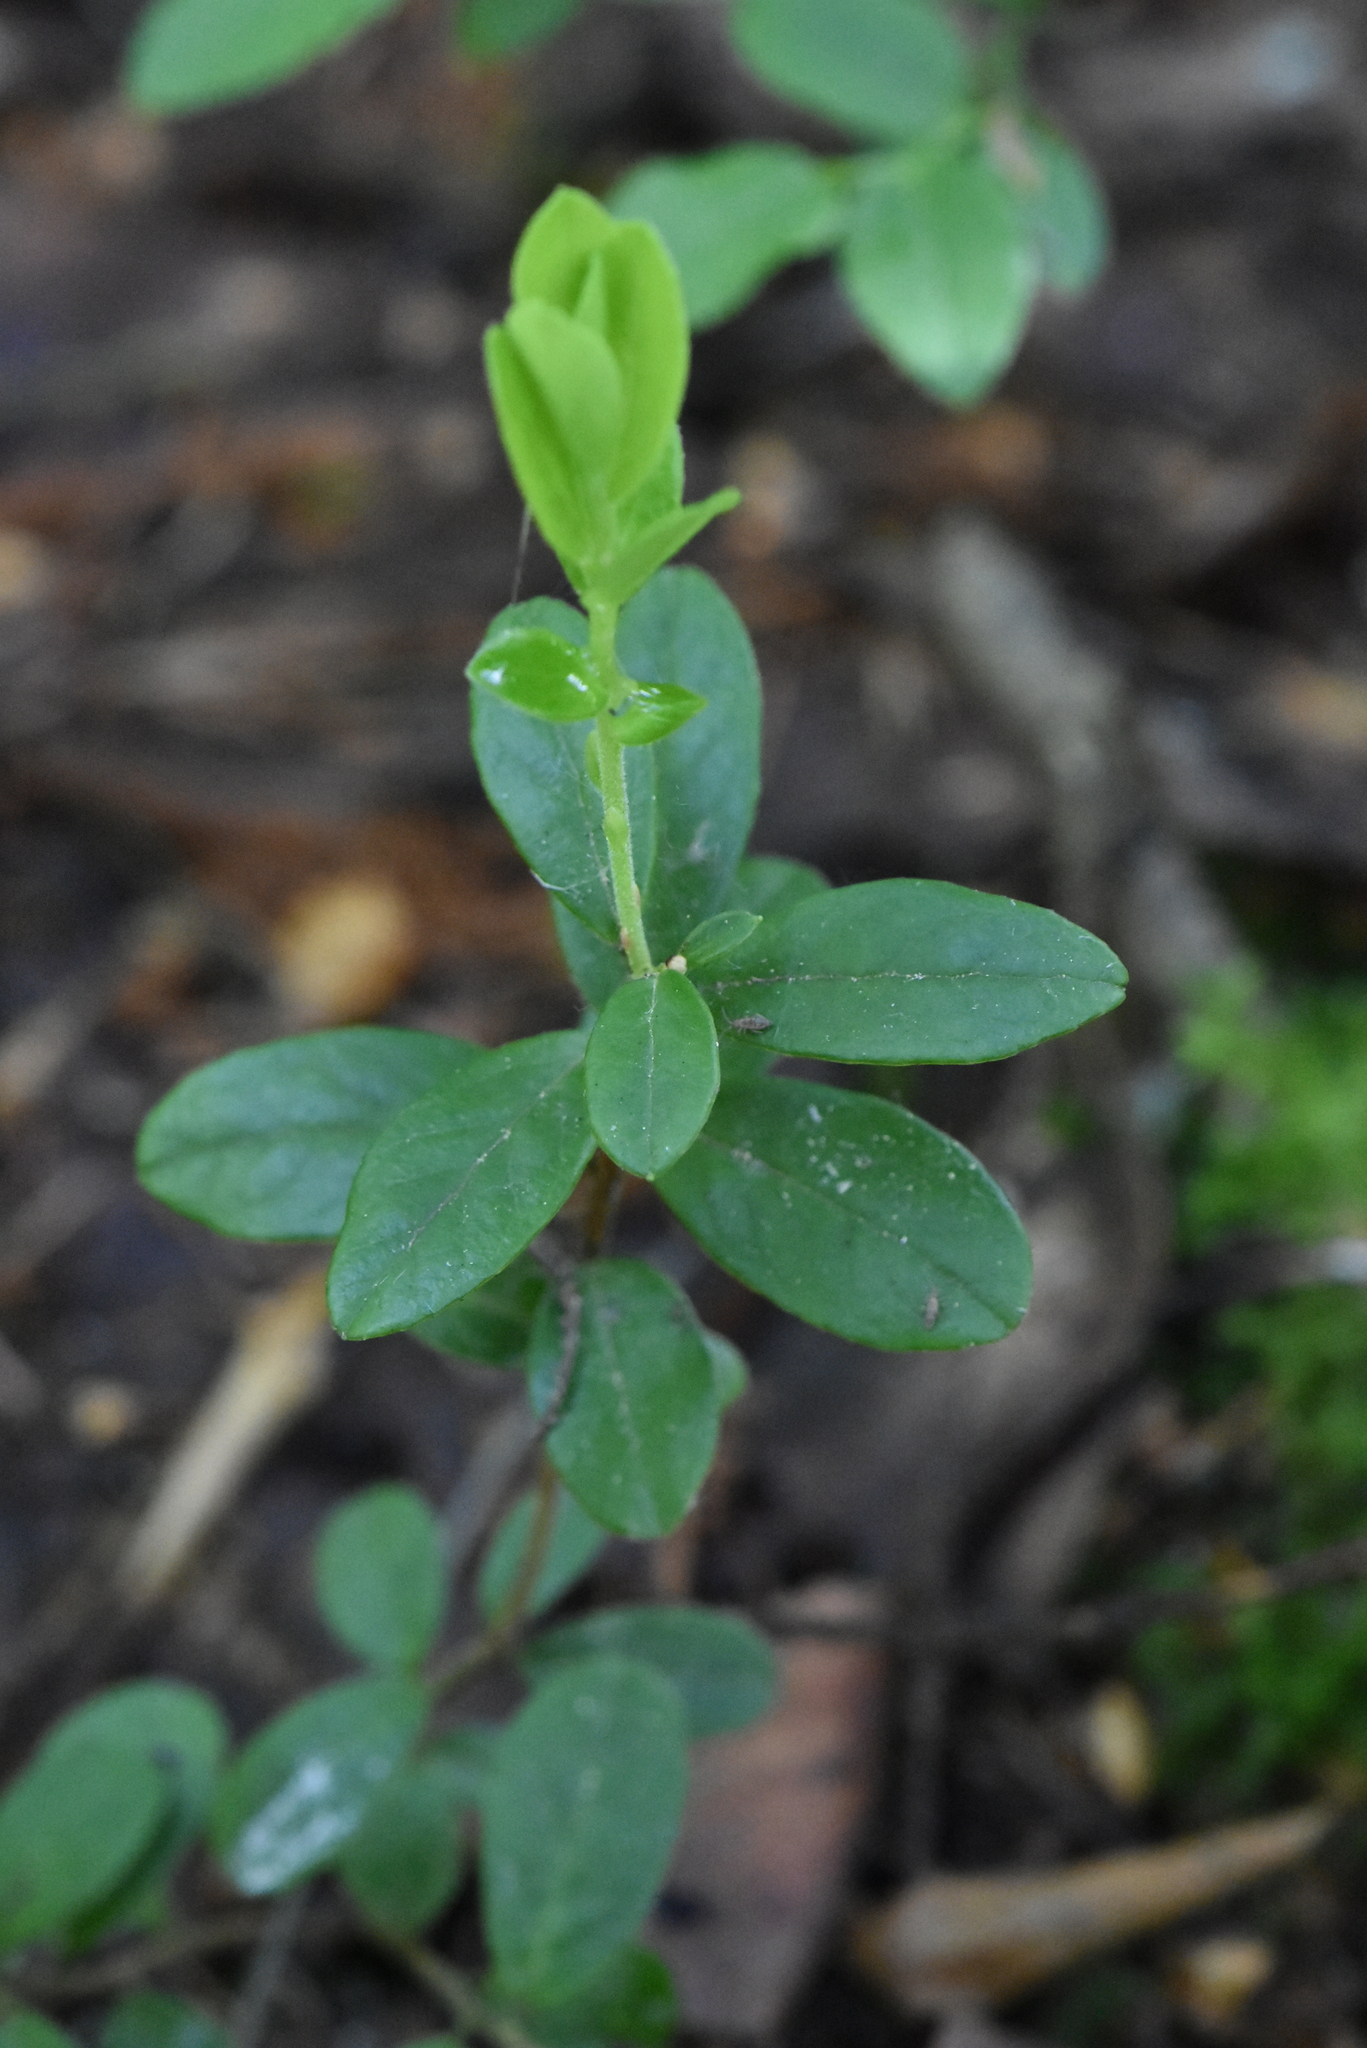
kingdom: Plantae
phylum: Tracheophyta
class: Magnoliopsida
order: Ericales
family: Ericaceae
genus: Vaccinium
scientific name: Vaccinium vitis-idaea
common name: Cowberry
